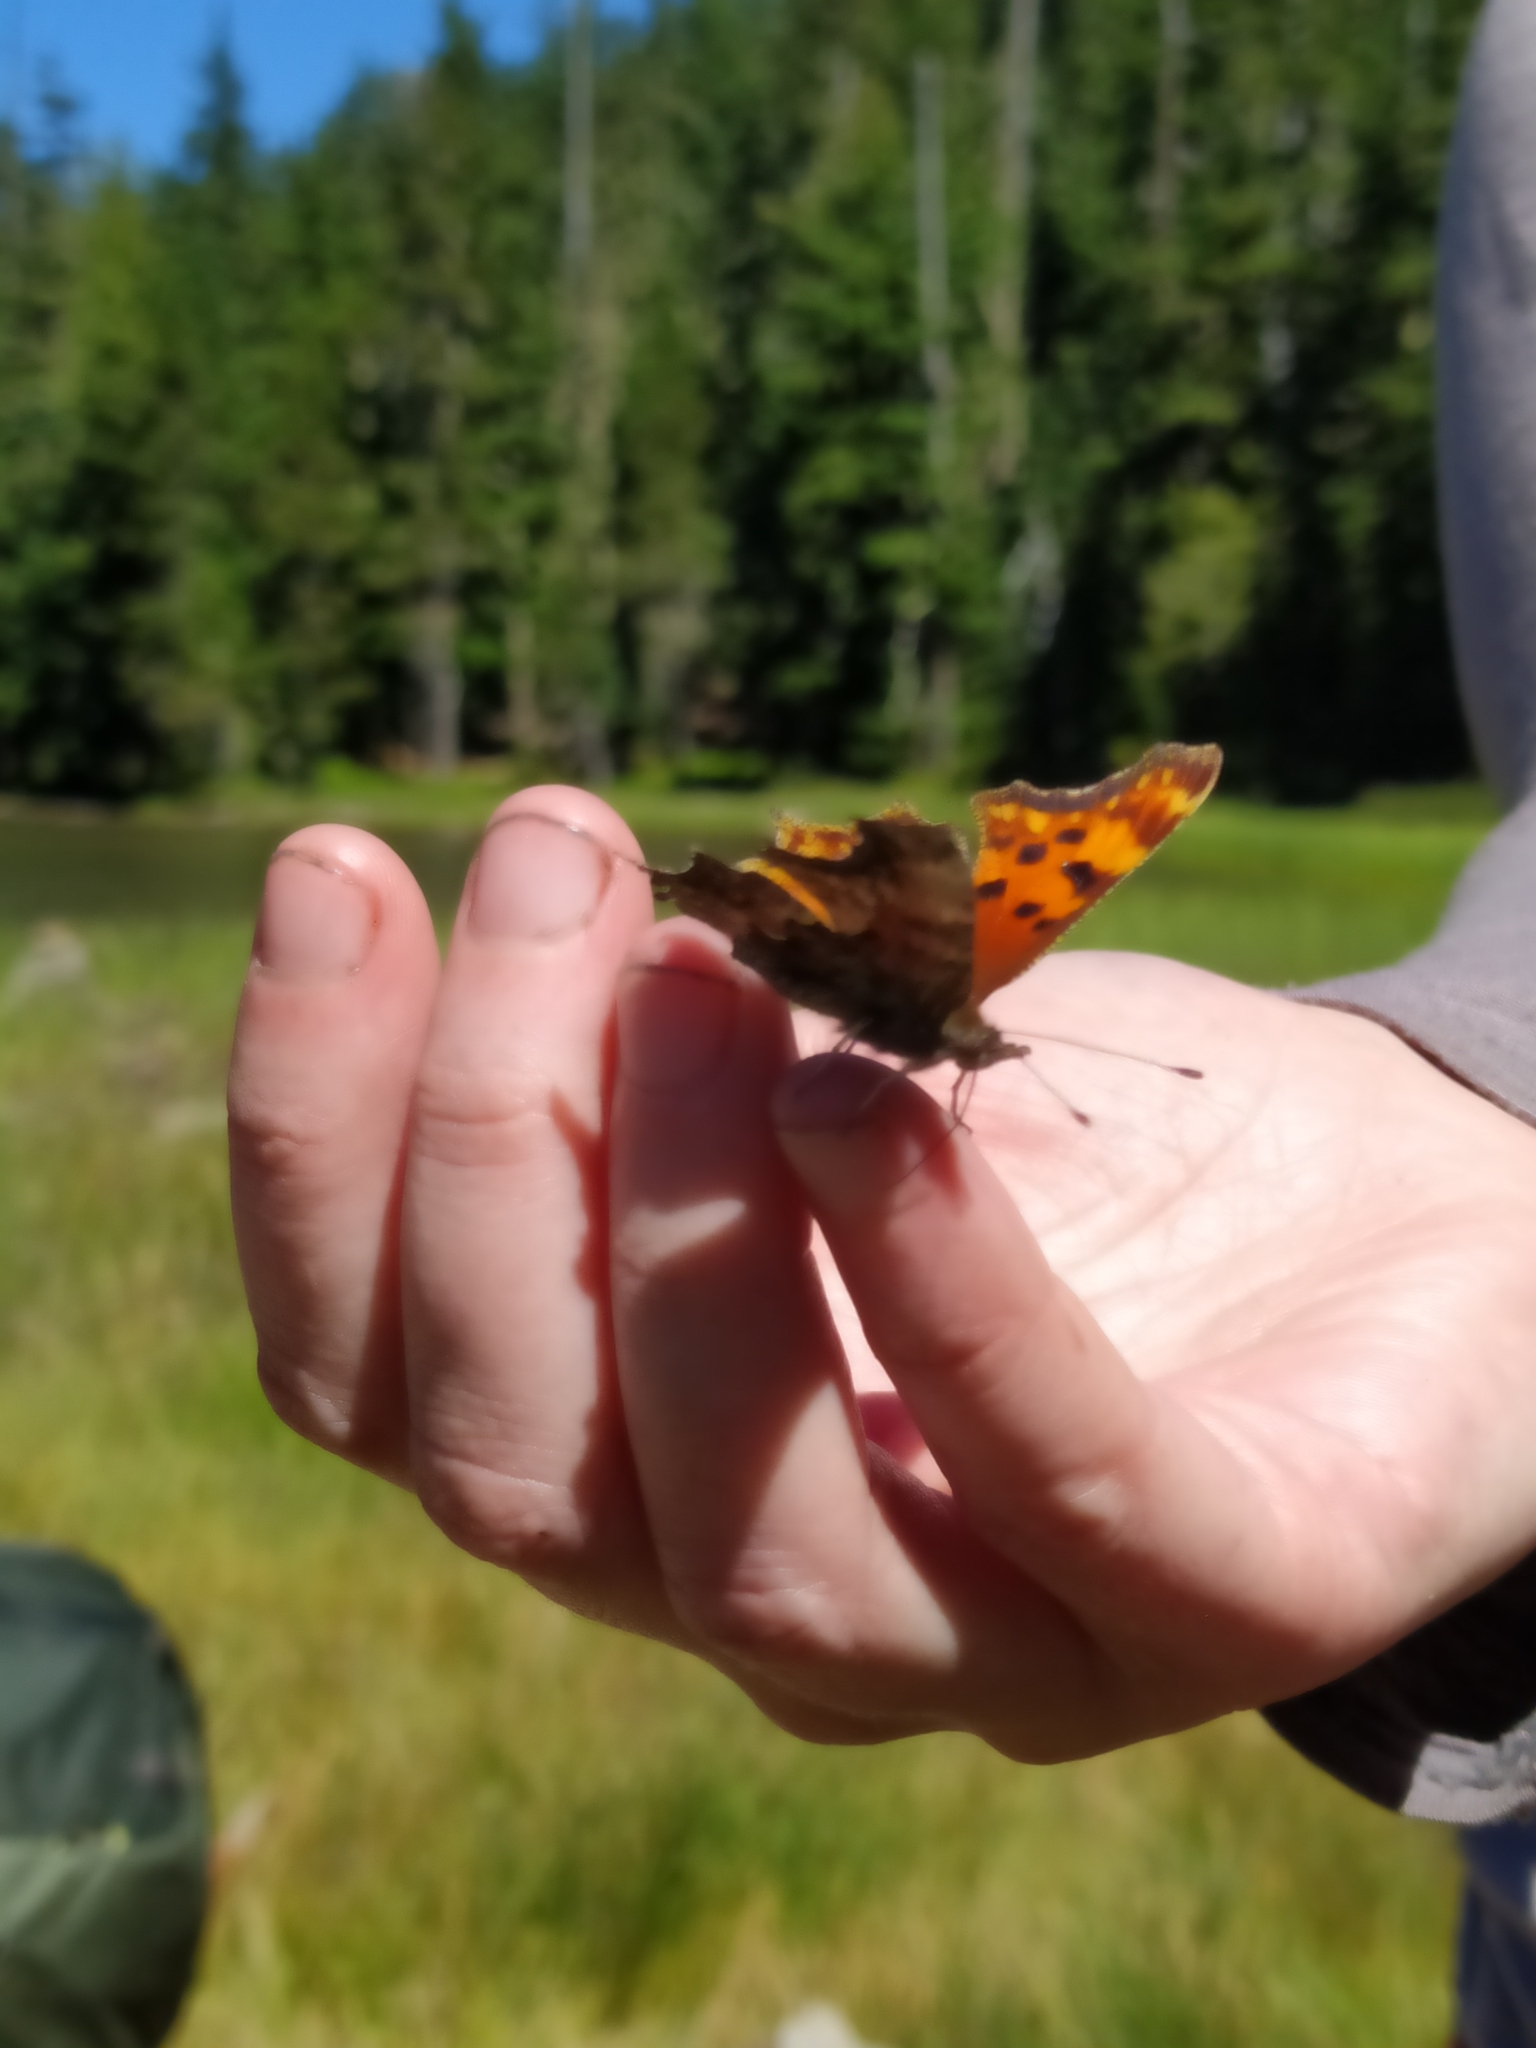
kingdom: Animalia
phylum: Arthropoda
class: Insecta
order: Lepidoptera
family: Nymphalidae
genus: Polygonia
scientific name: Polygonia gracilis
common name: Hoary comma
